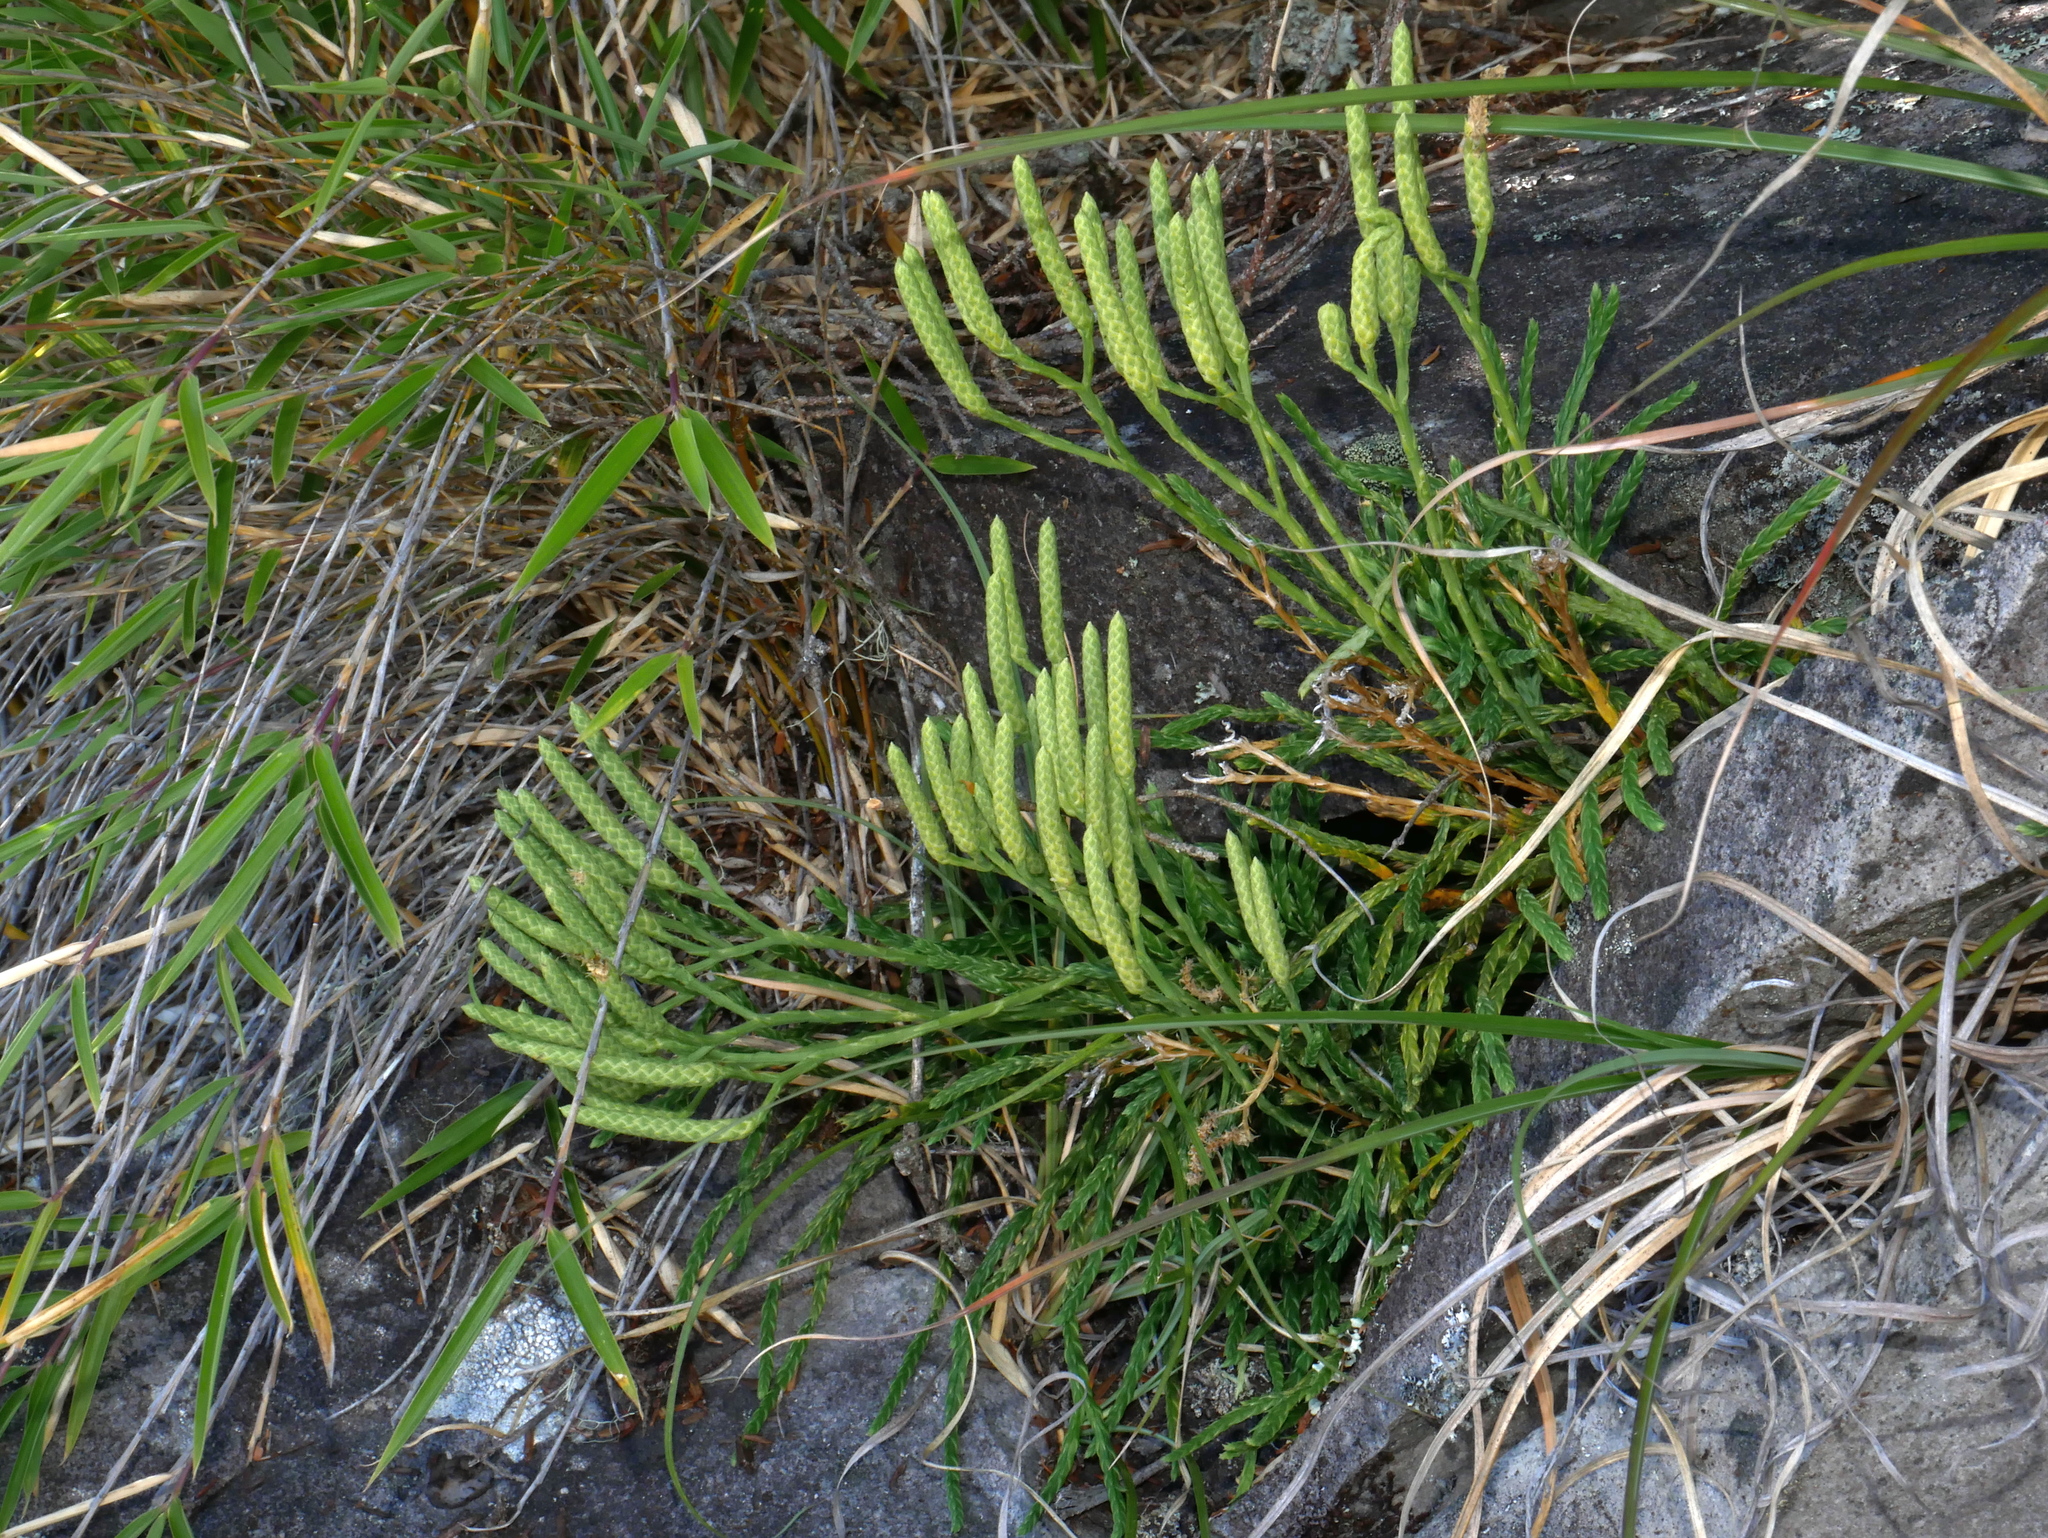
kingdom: Plantae
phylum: Tracheophyta
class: Lycopodiopsida
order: Lycopodiales
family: Lycopodiaceae
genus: Diphasiastrum
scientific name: Diphasiastrum complanatum
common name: Northern running-pine
